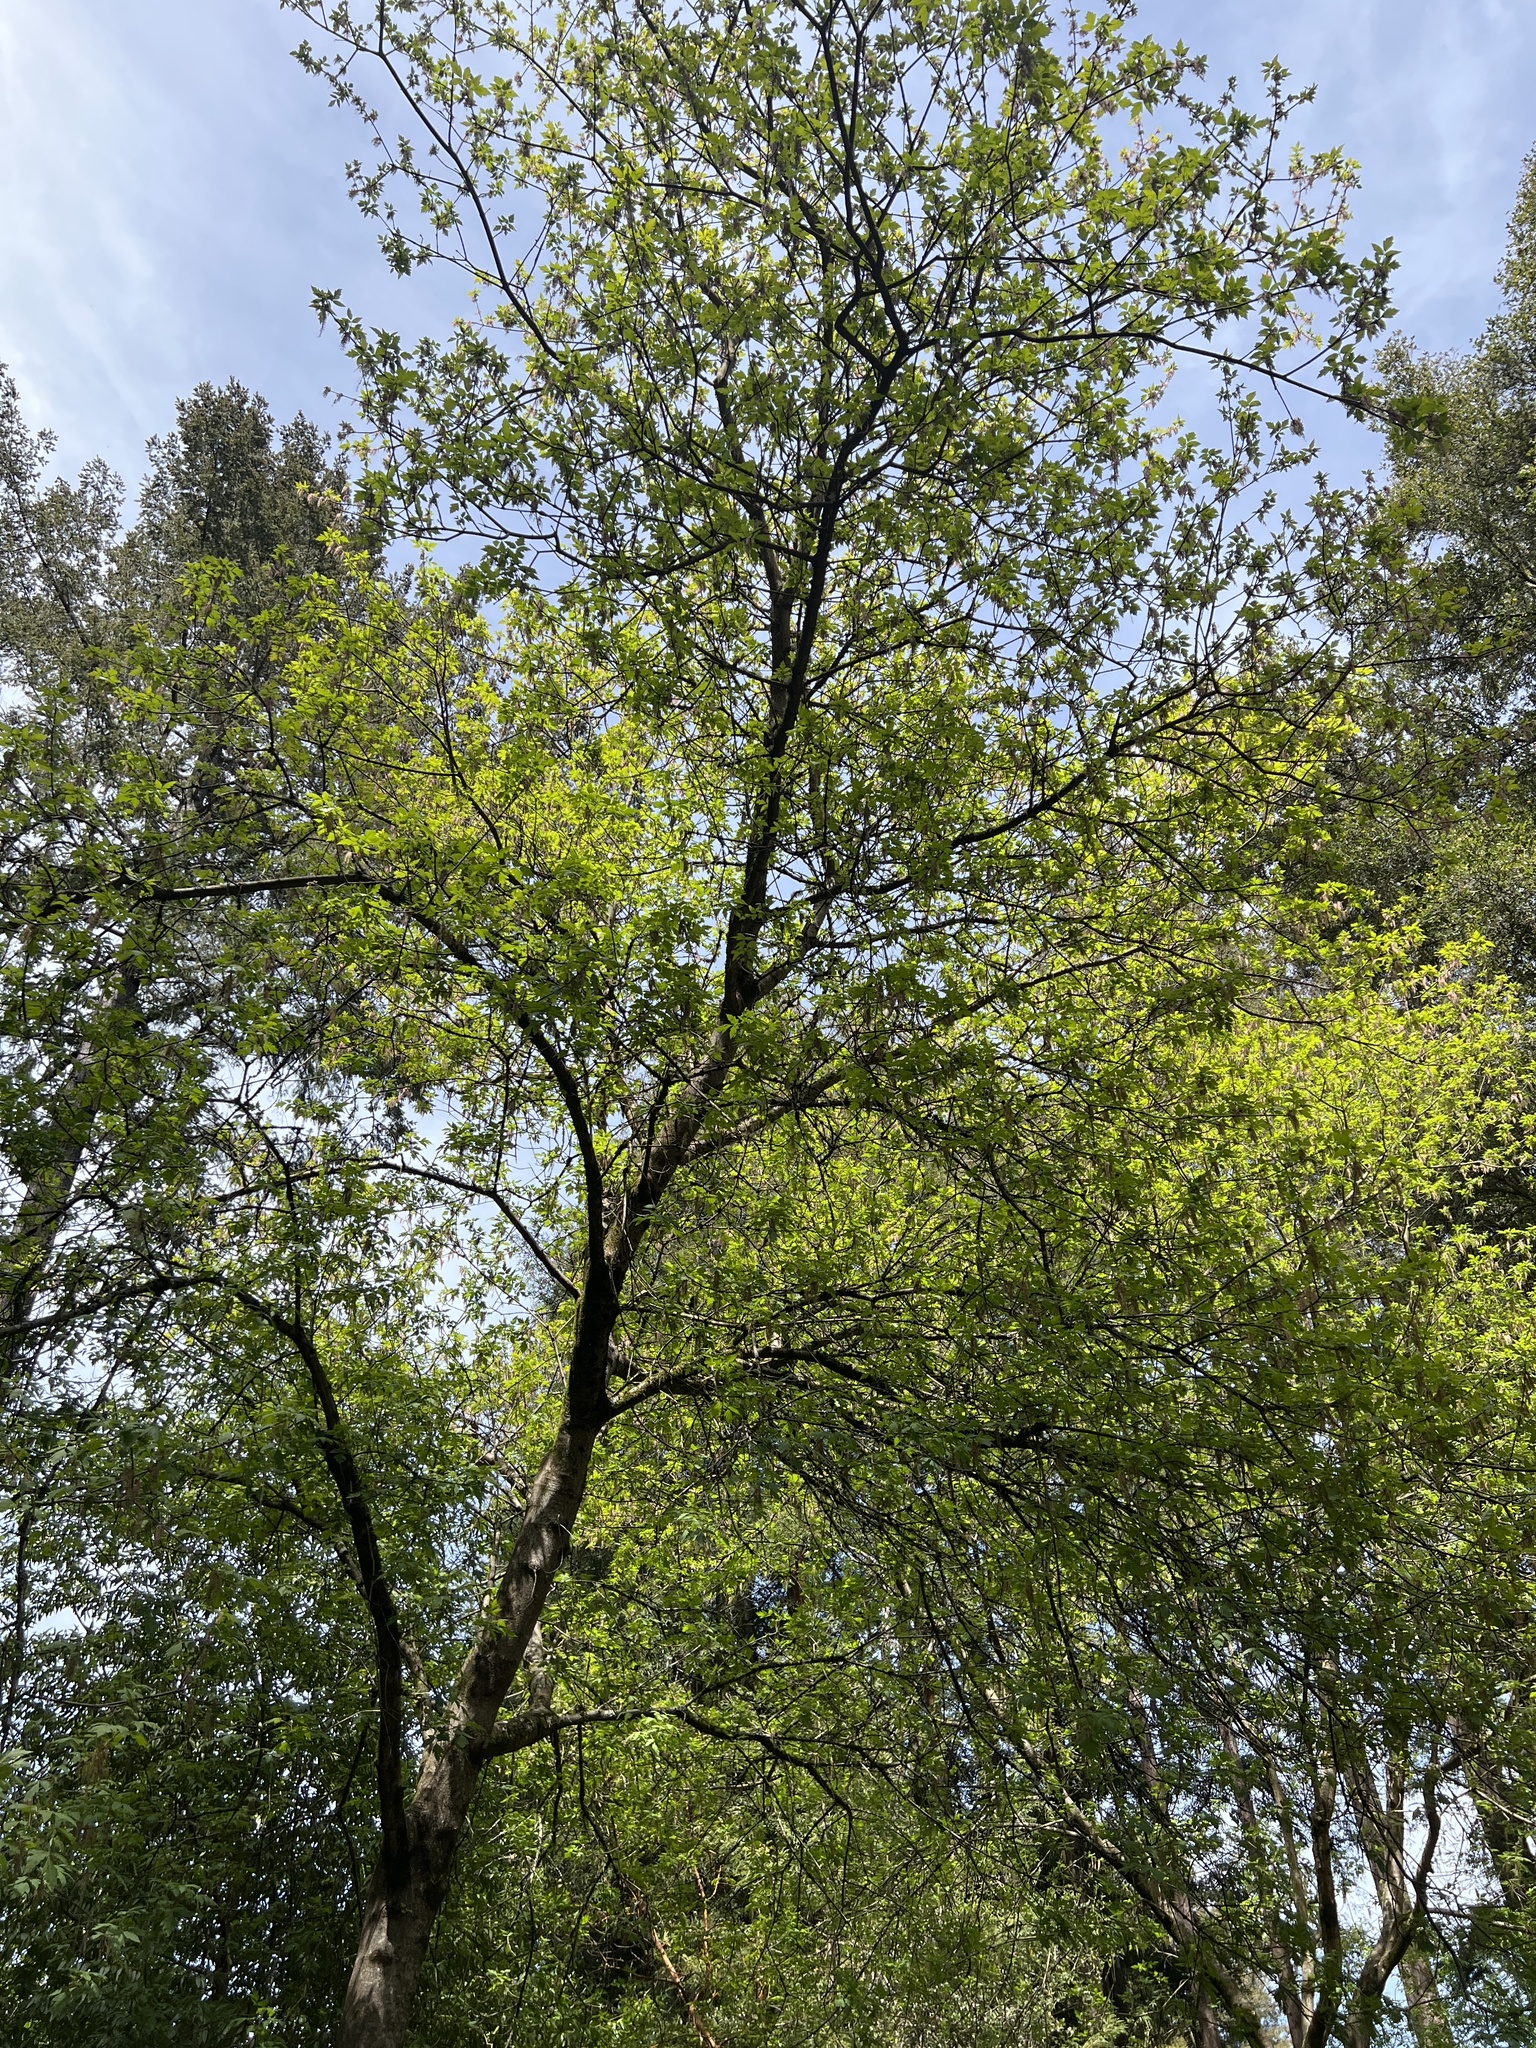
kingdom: Plantae
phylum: Tracheophyta
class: Magnoliopsida
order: Sapindales
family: Sapindaceae
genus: Acer
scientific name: Acer negundo
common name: Ashleaf maple
